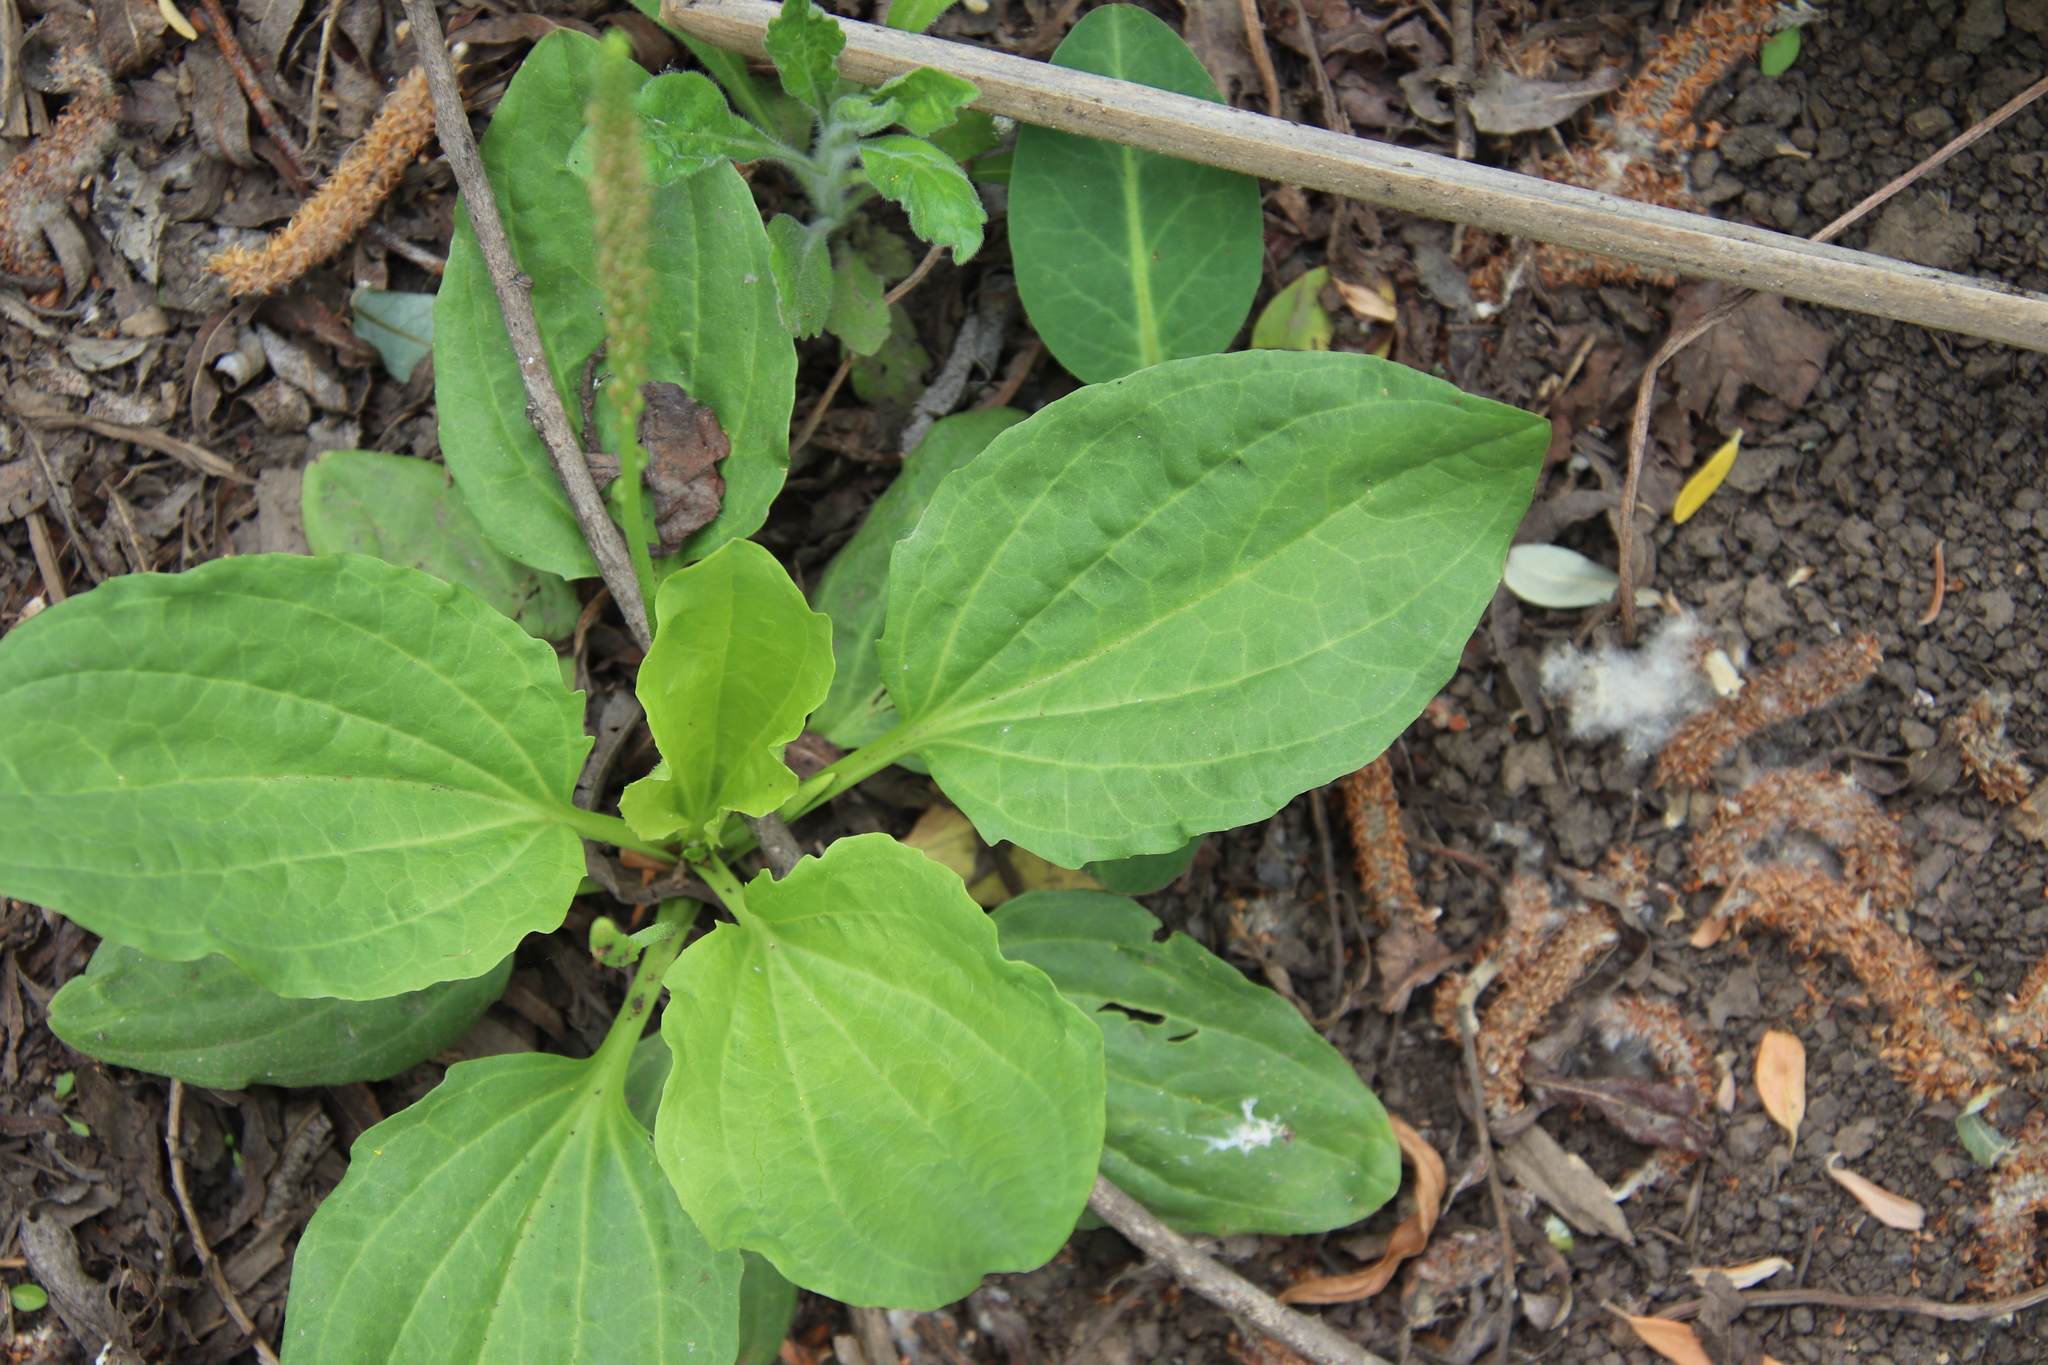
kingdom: Plantae
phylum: Tracheophyta
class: Magnoliopsida
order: Lamiales
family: Plantaginaceae
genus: Plantago
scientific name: Plantago major
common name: Common plantain
